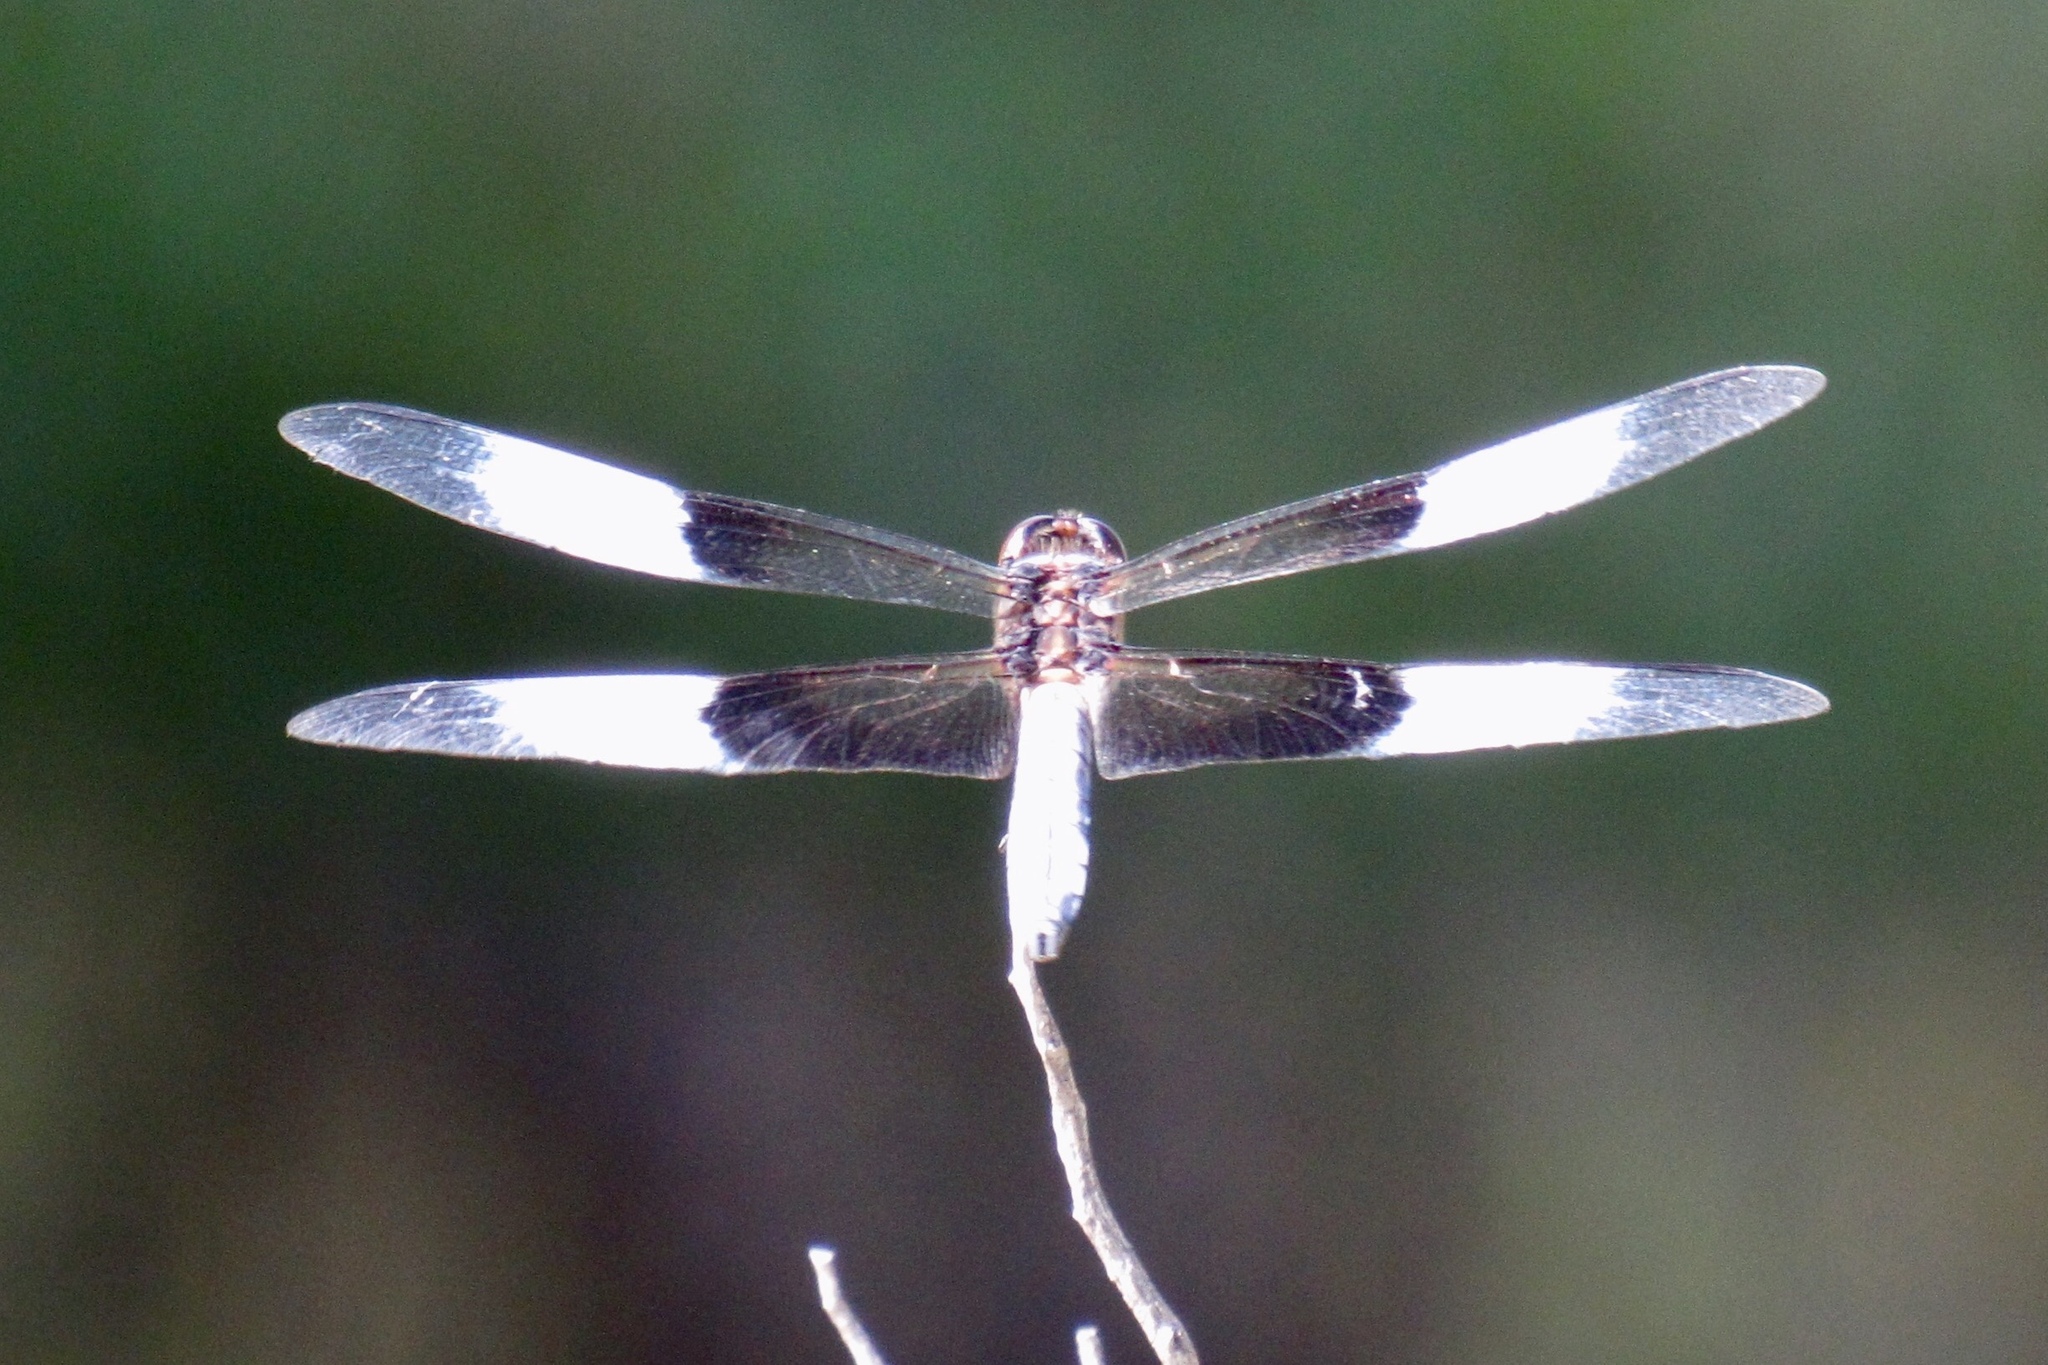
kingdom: Animalia
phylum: Arthropoda
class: Insecta
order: Odonata
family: Libellulidae
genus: Libellula
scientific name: Libellula luctuosa
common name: Widow skimmer
